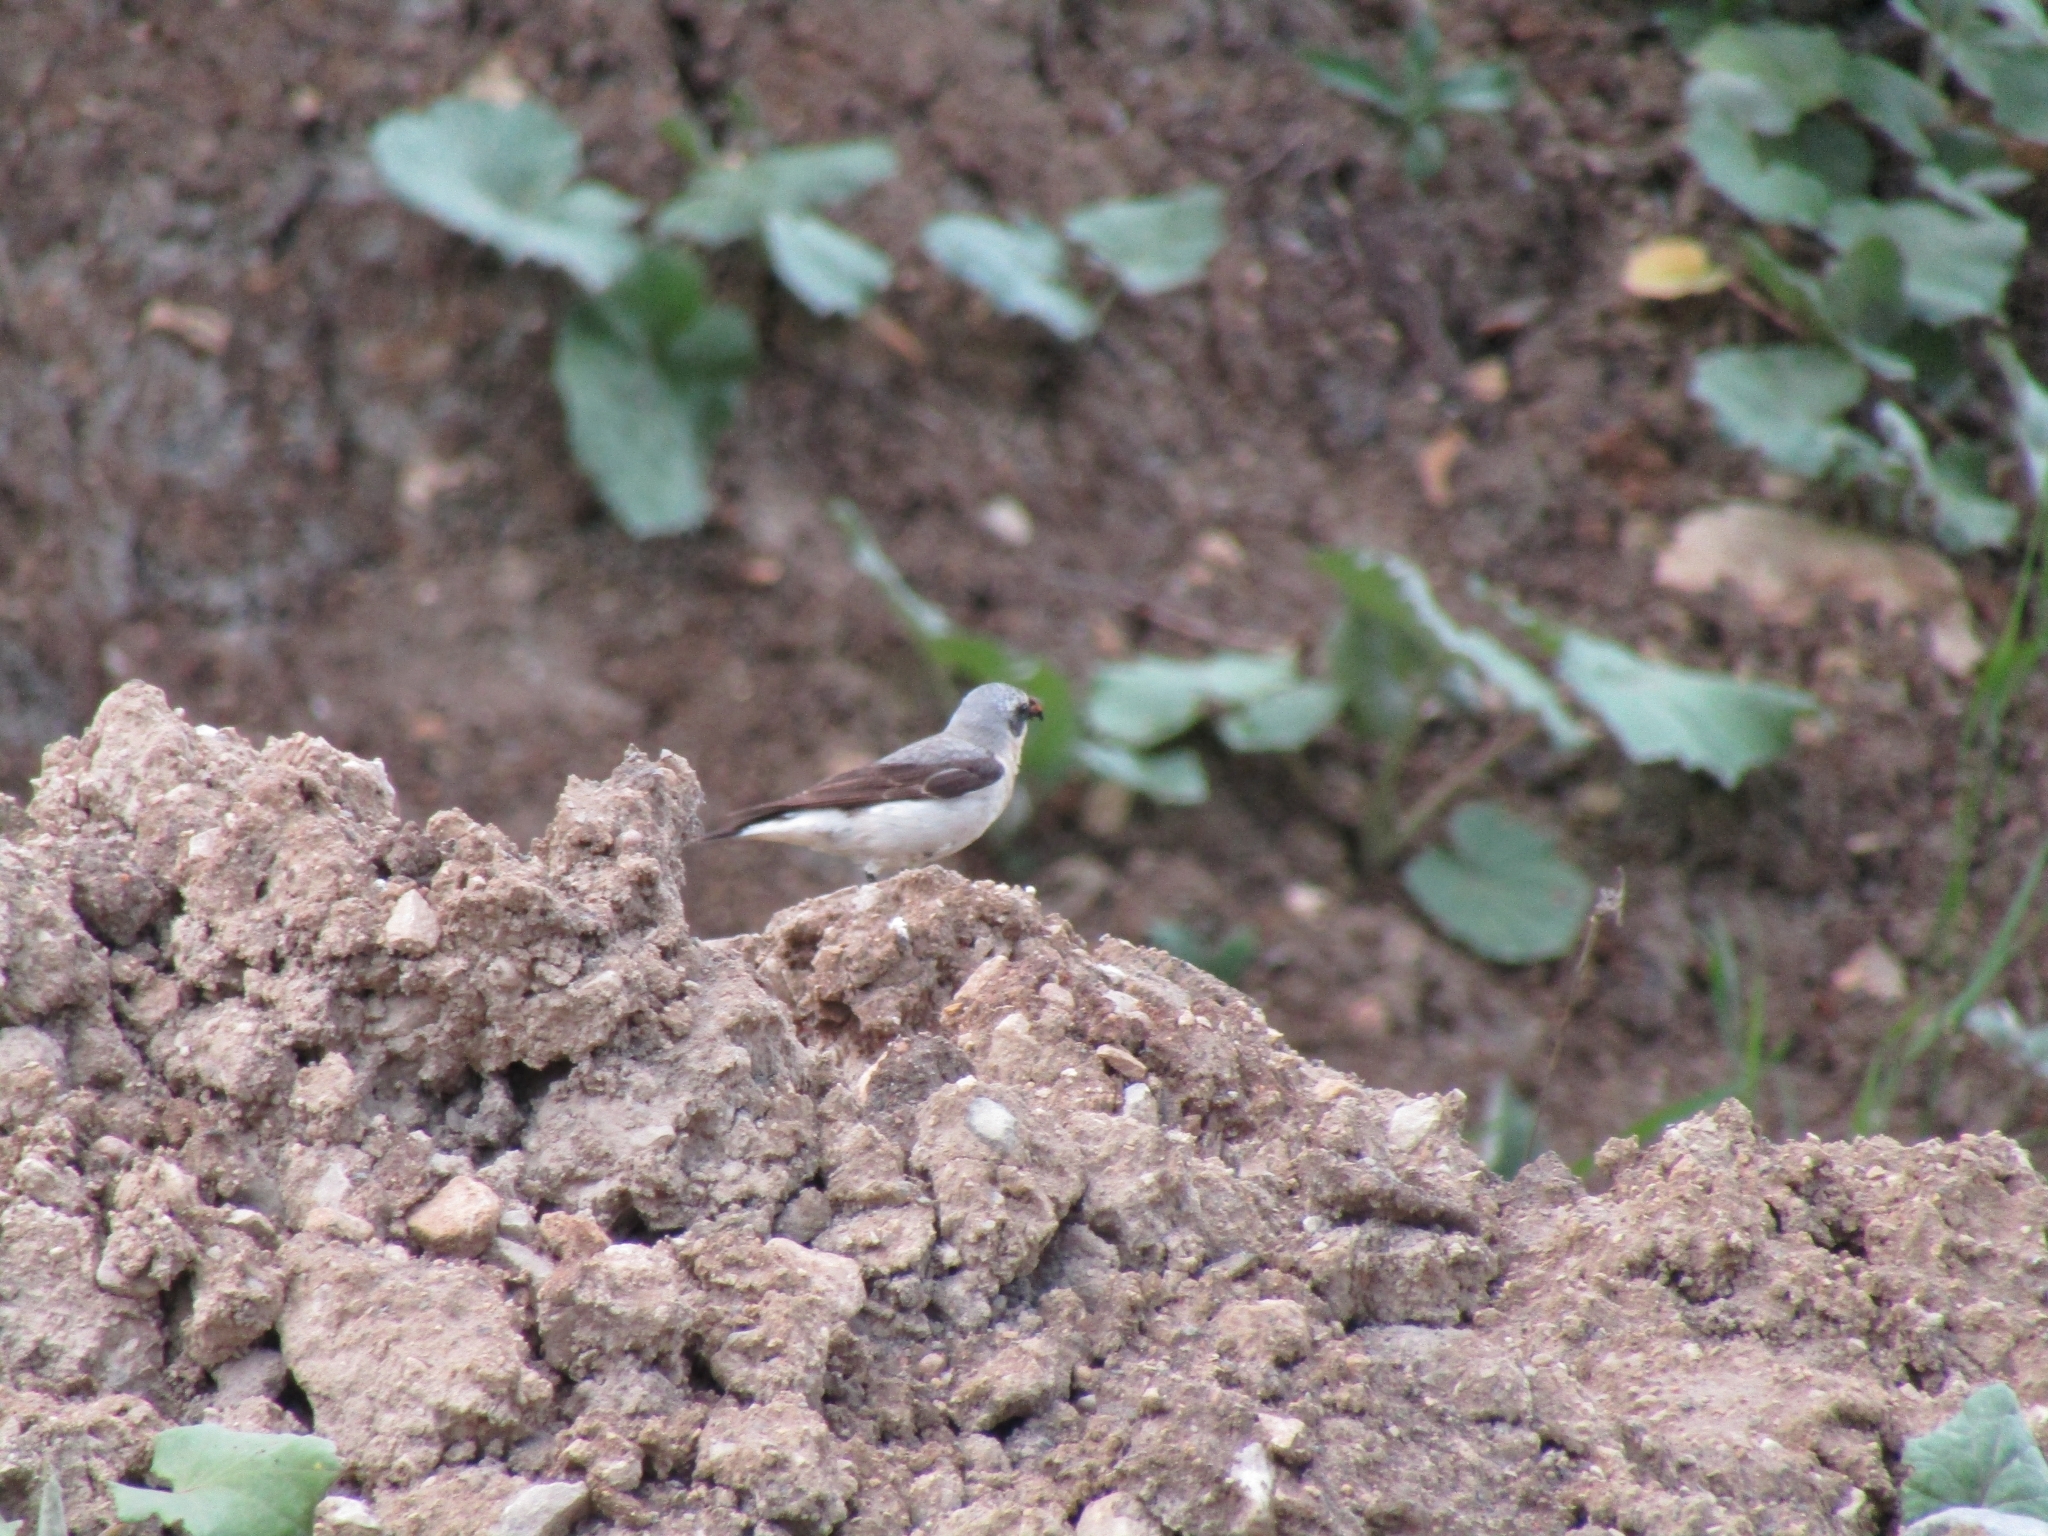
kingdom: Animalia
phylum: Chordata
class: Aves
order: Passeriformes
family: Muscicapidae
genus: Oenanthe
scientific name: Oenanthe oenanthe
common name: Northern wheatear
